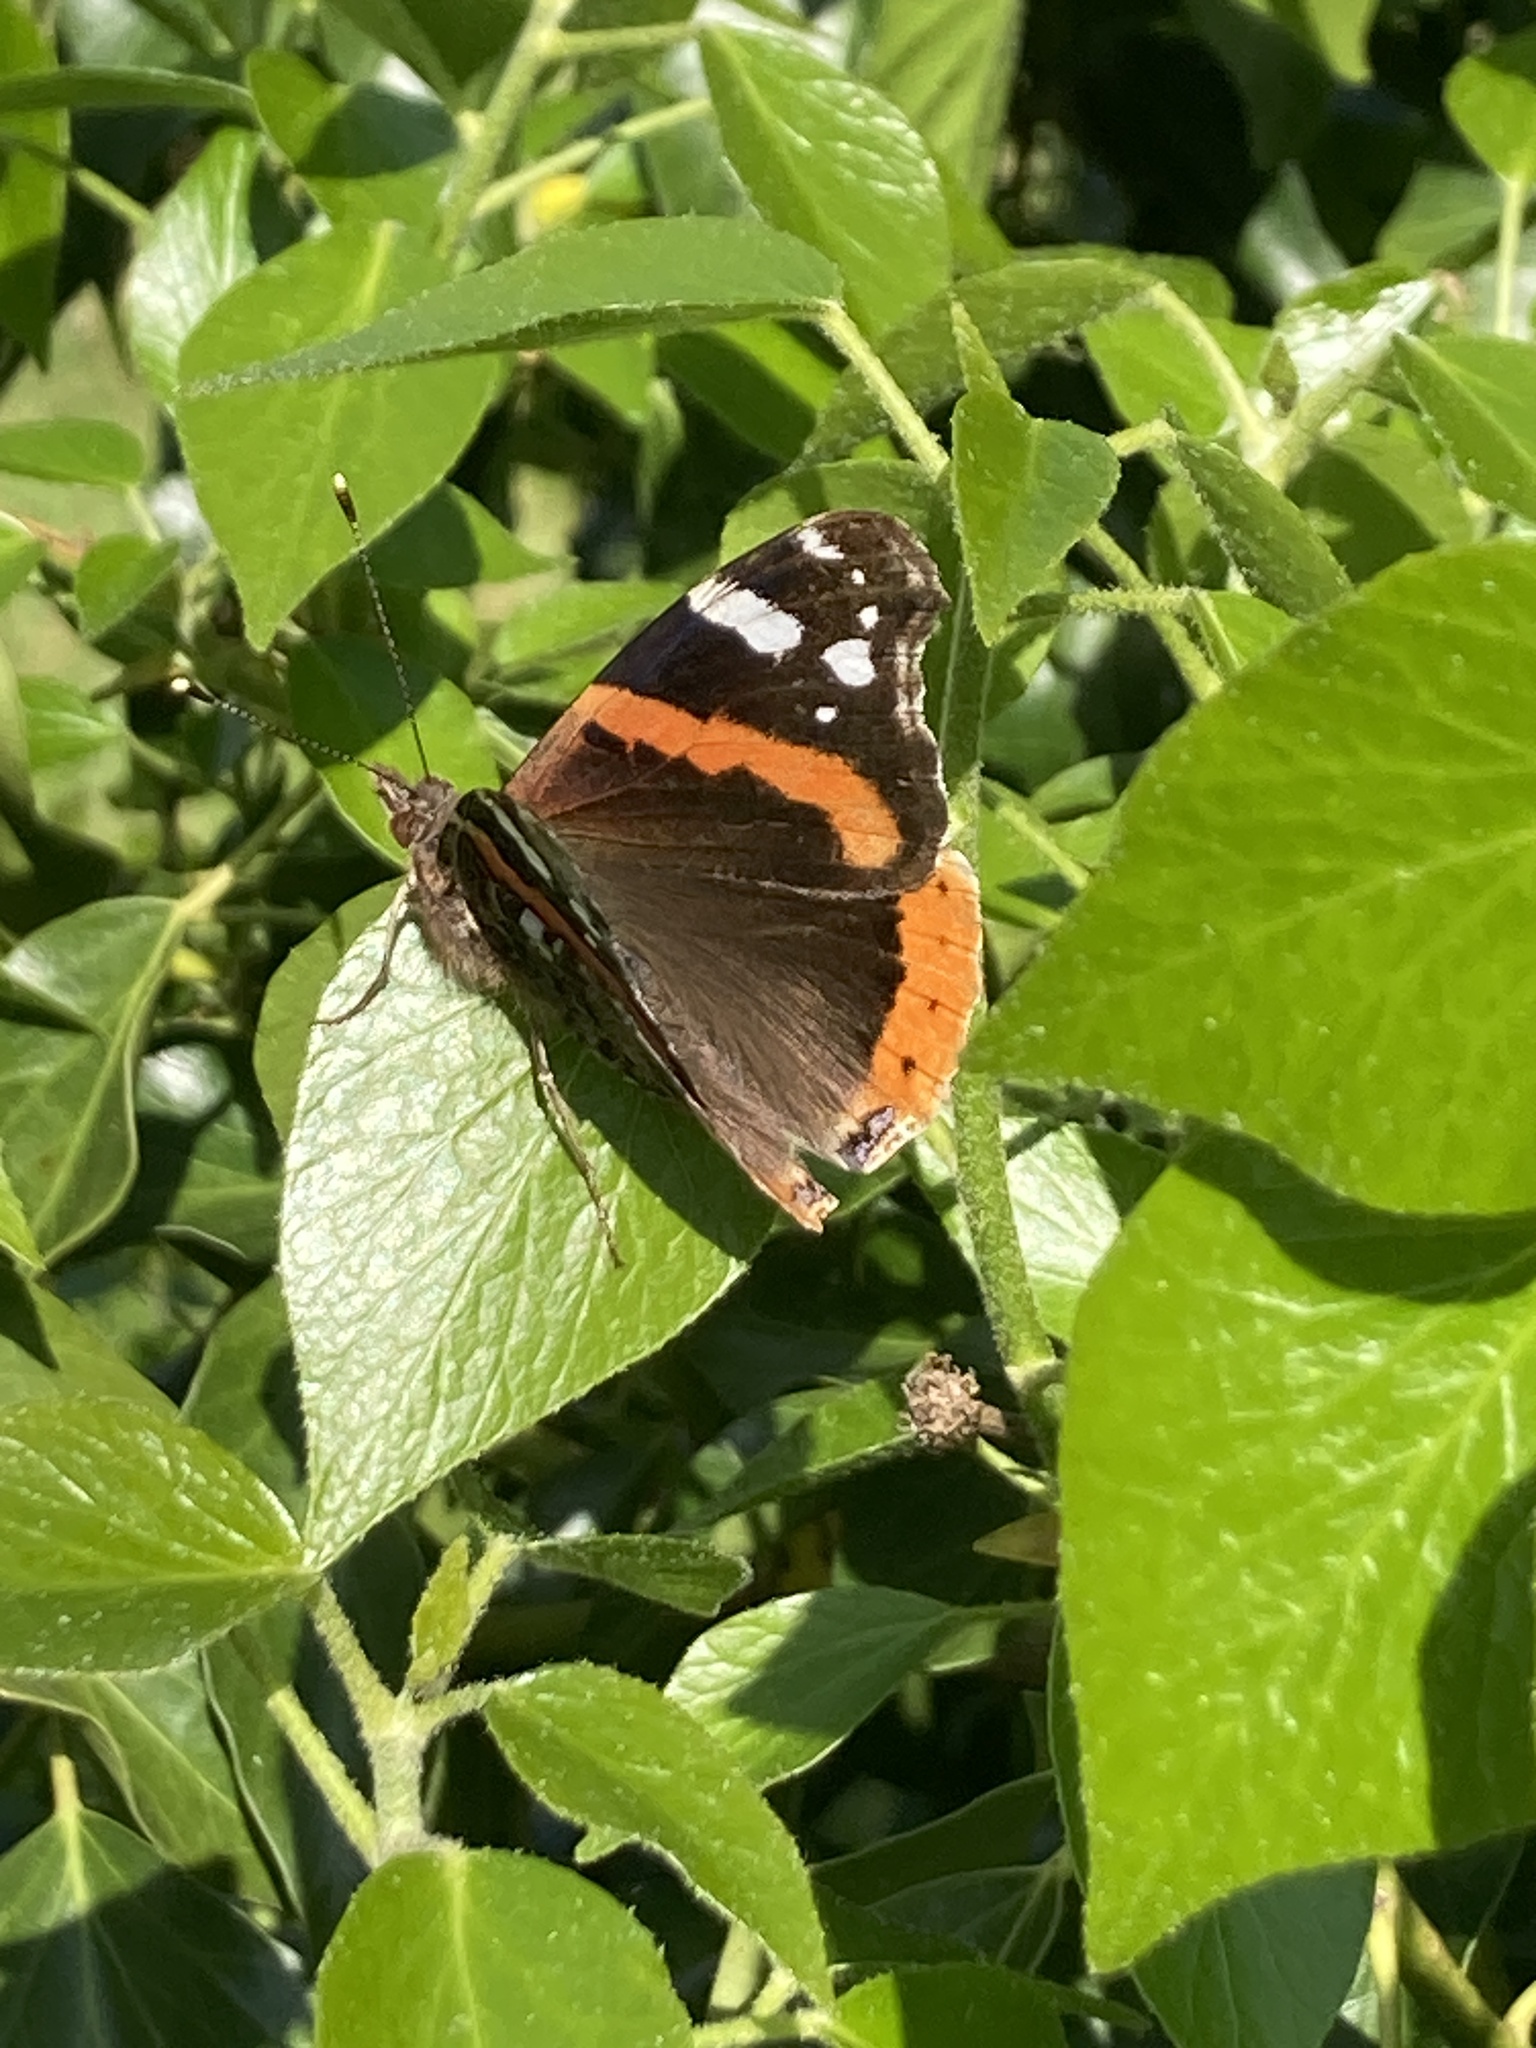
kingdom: Animalia
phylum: Arthropoda
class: Insecta
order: Lepidoptera
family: Nymphalidae
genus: Vanessa
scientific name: Vanessa atalanta
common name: Red admiral
